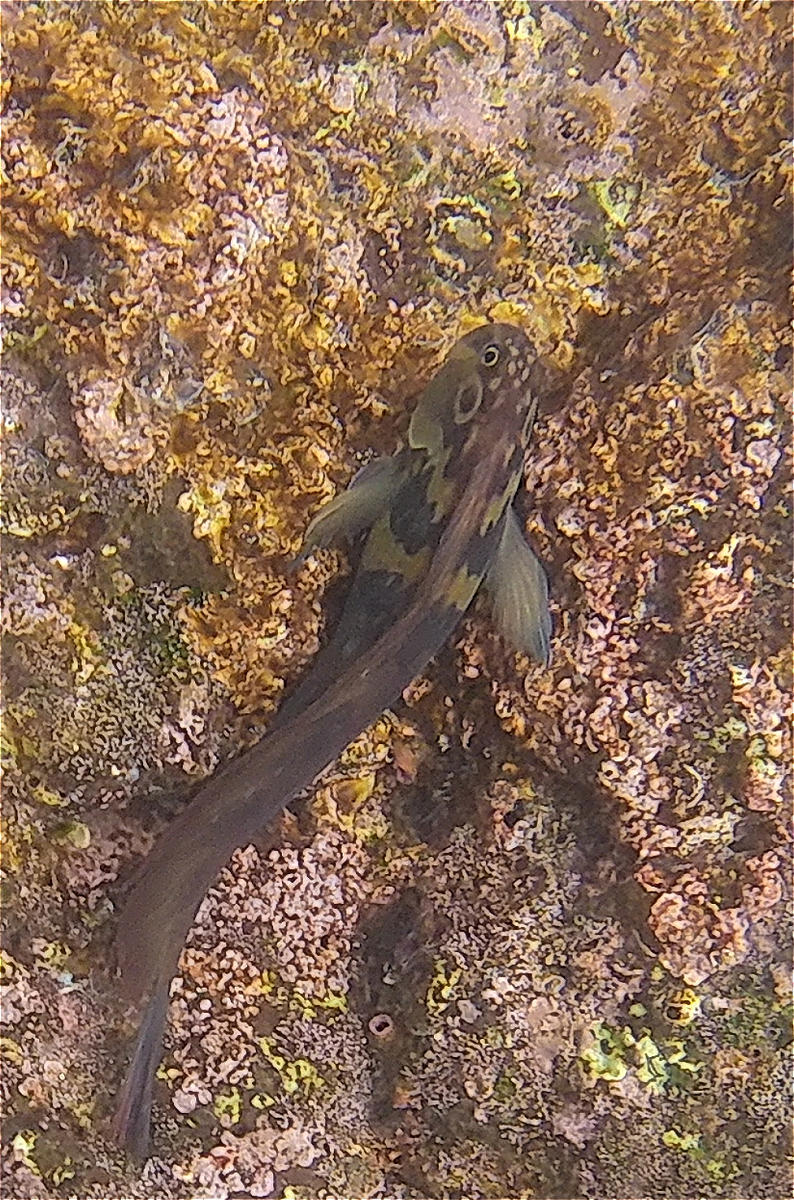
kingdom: Animalia
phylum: Chordata
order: Perciformes
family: Blenniidae
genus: Ophioblennius
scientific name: Ophioblennius steindachneri
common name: Panamic fanged blenny
